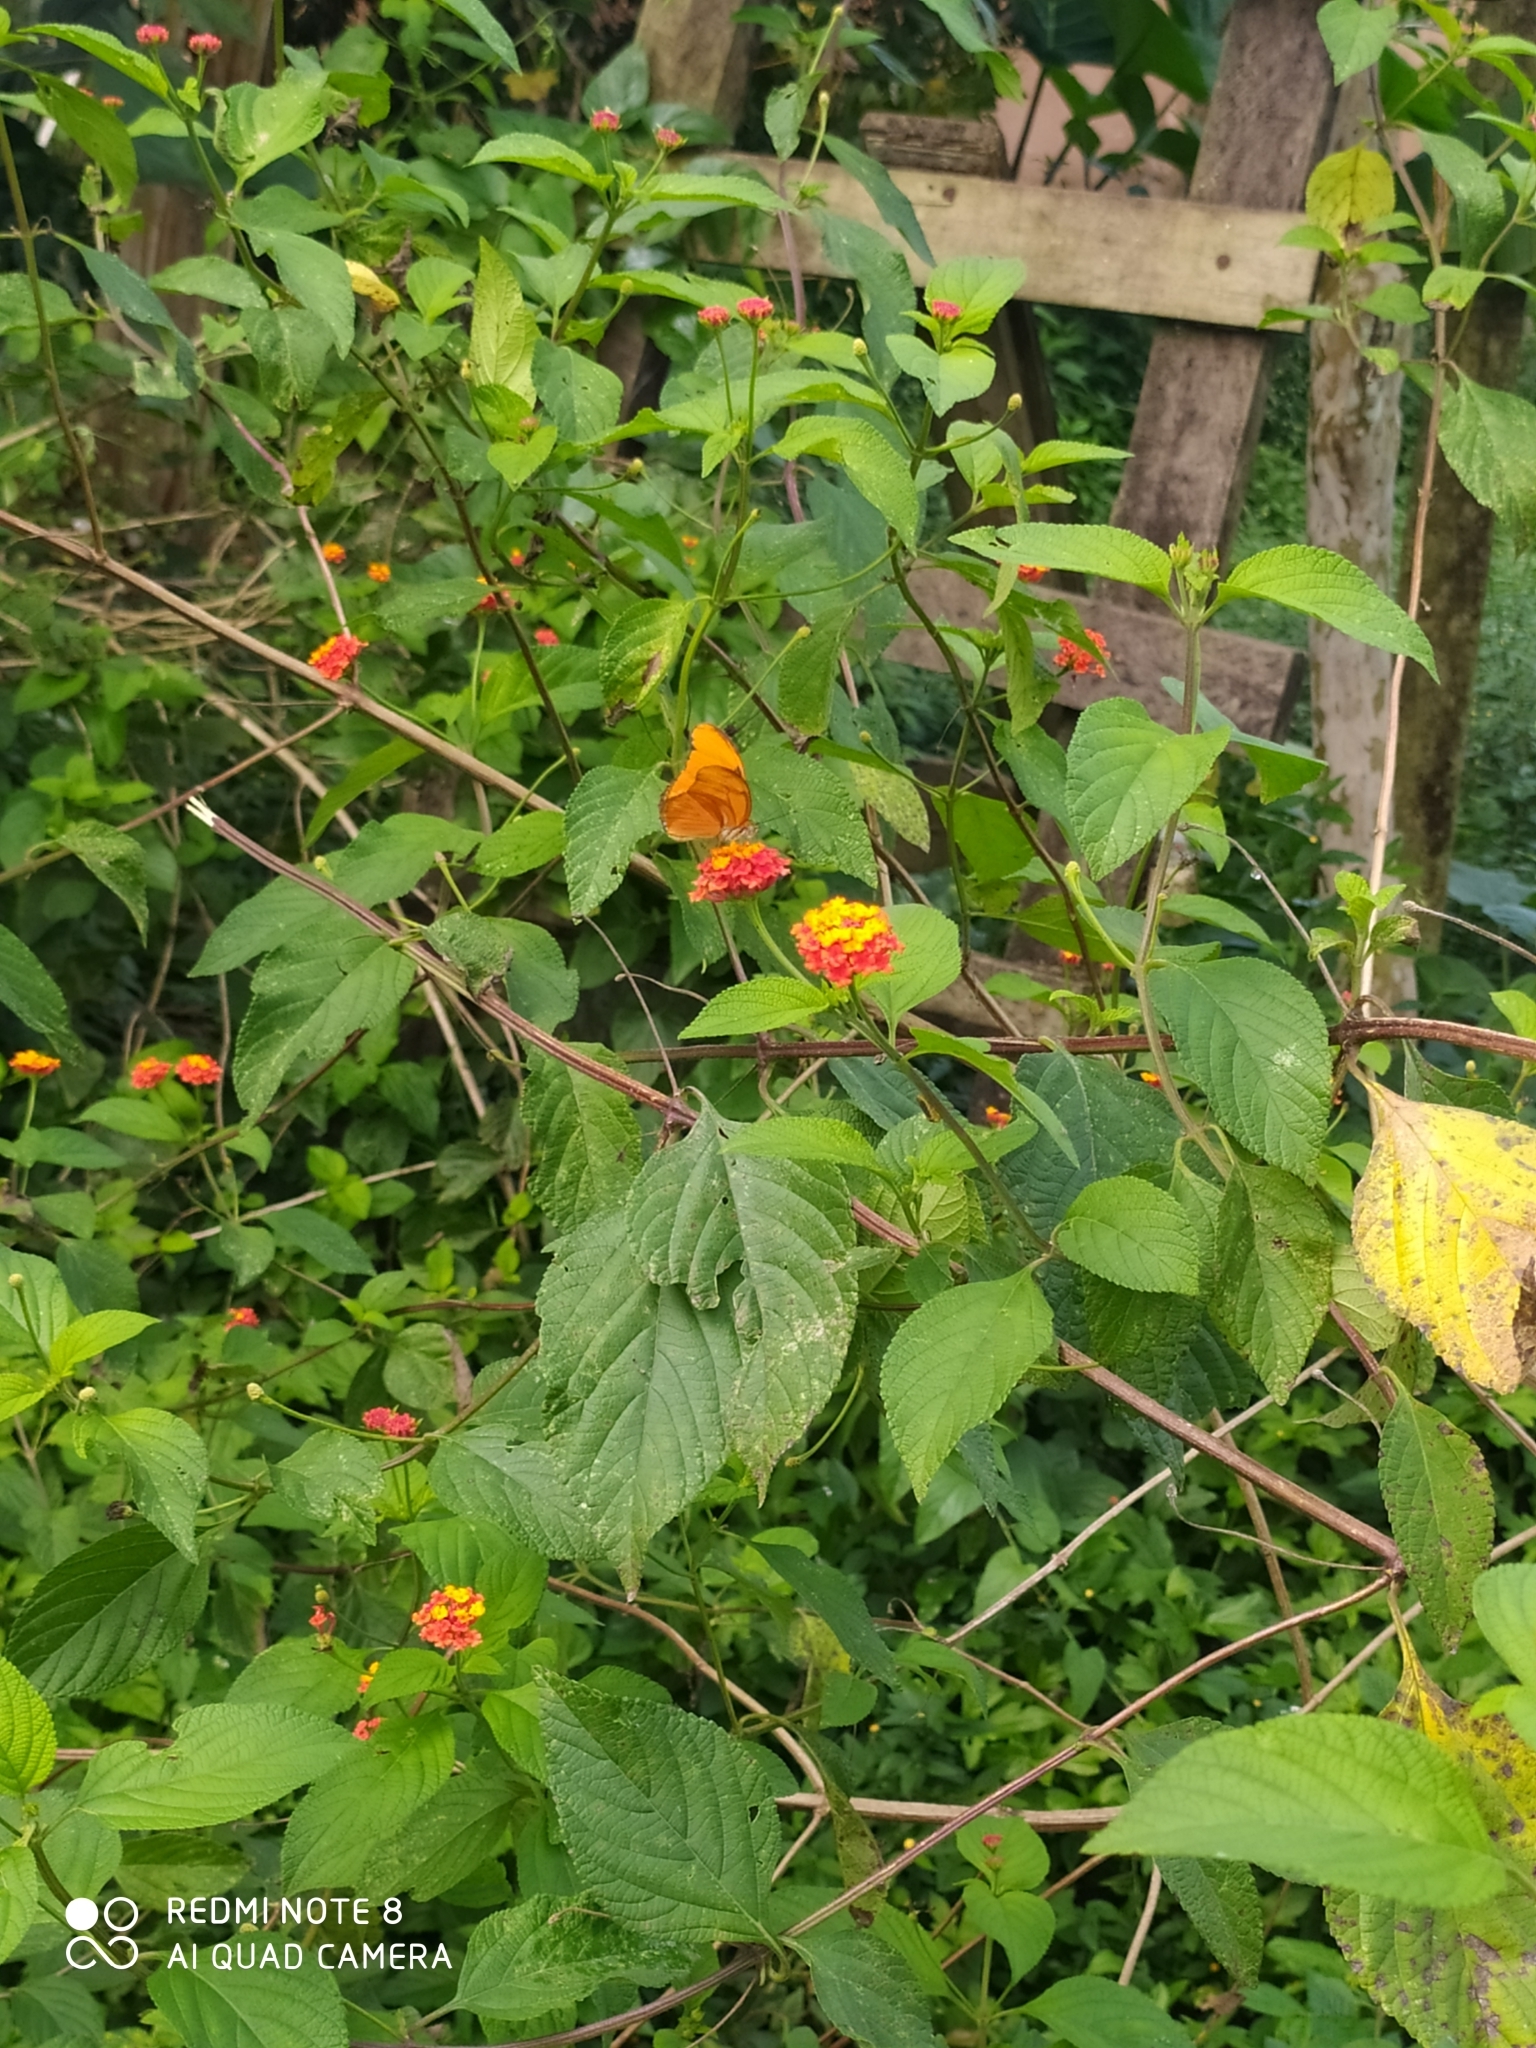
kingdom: Plantae
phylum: Tracheophyta
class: Magnoliopsida
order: Lamiales
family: Verbenaceae
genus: Lantana
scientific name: Lantana camara
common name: Lantana
